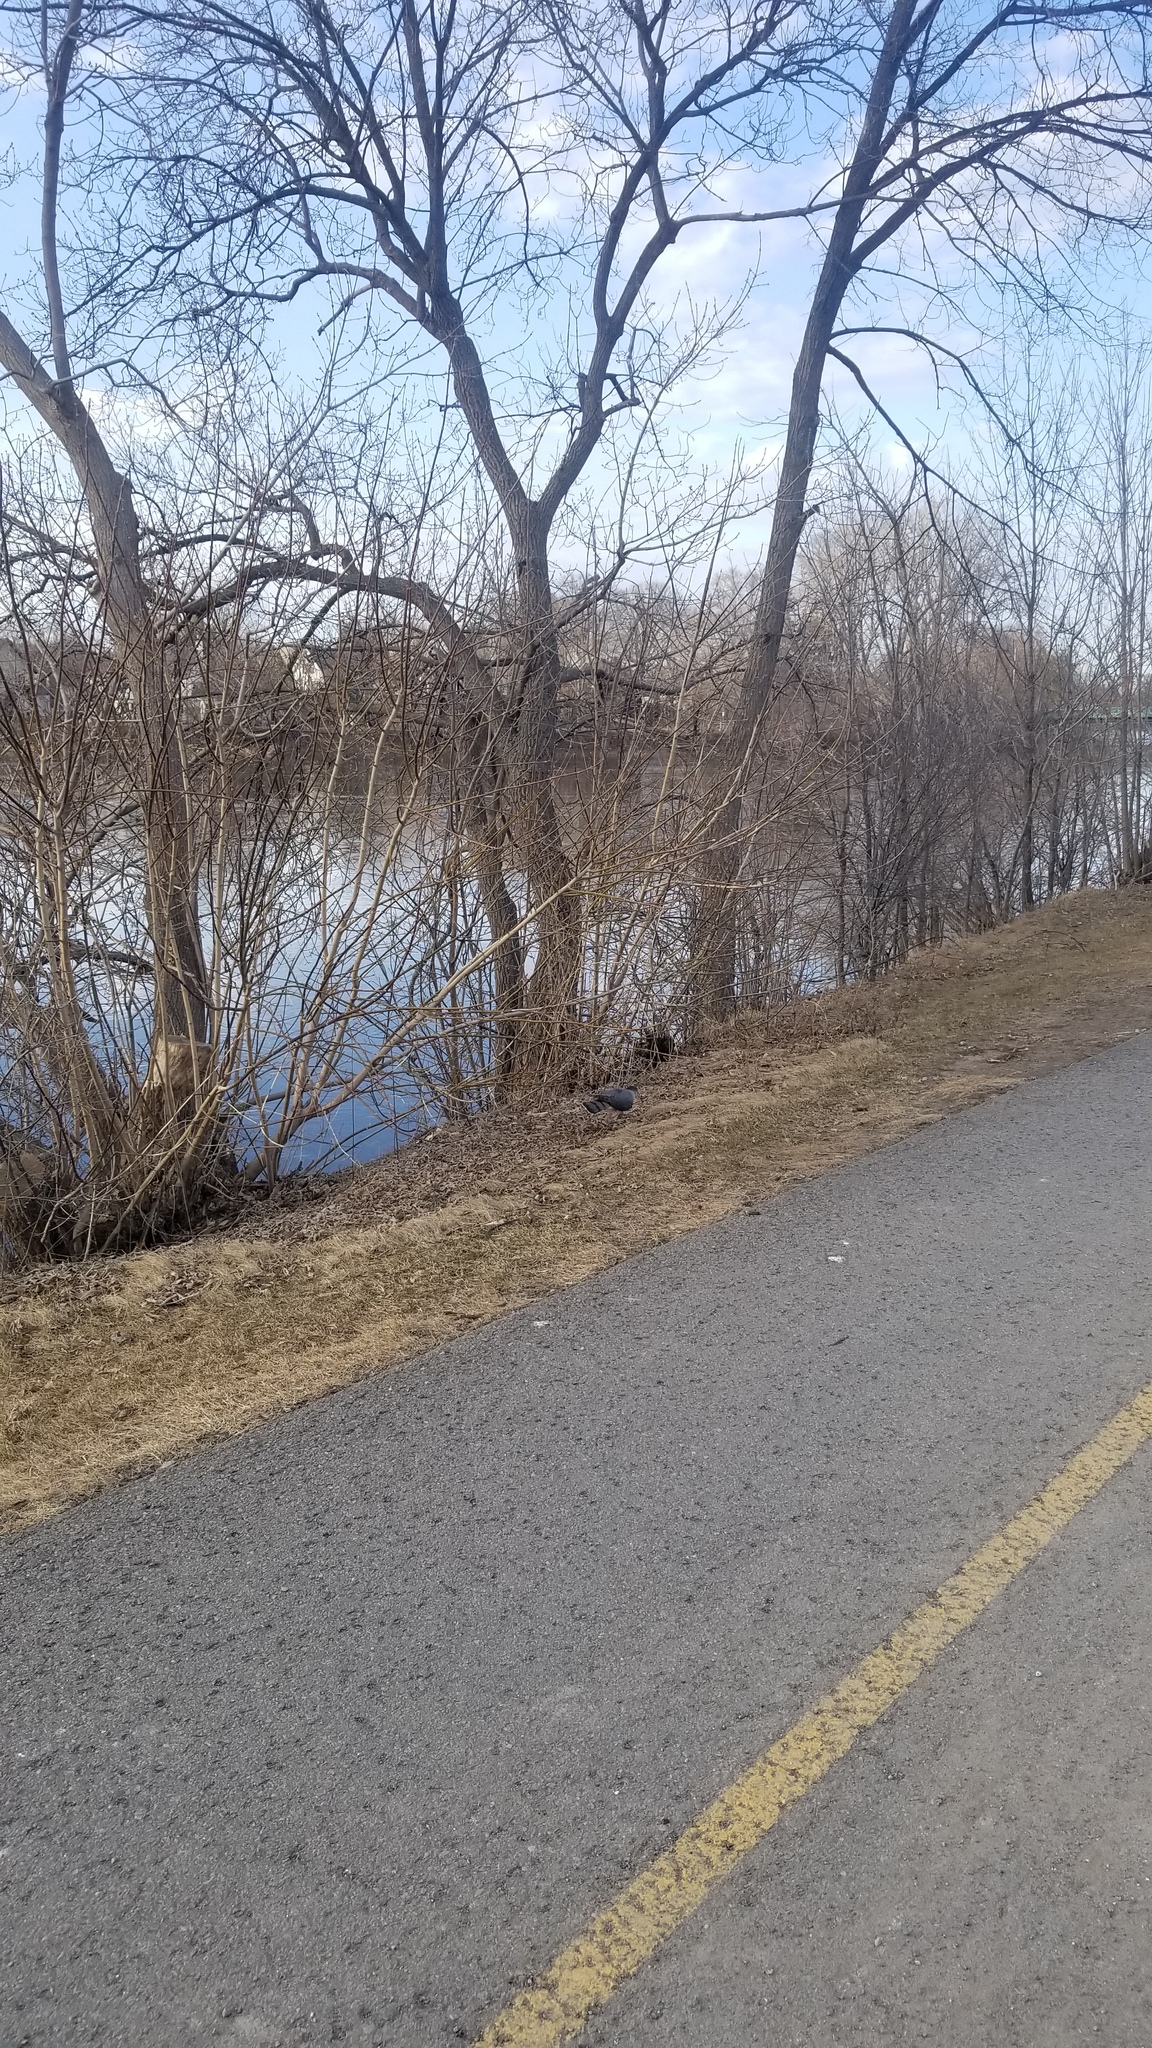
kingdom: Animalia
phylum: Chordata
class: Aves
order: Accipitriformes
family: Accipitridae
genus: Accipiter
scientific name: Accipiter cooperii
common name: Cooper's hawk
